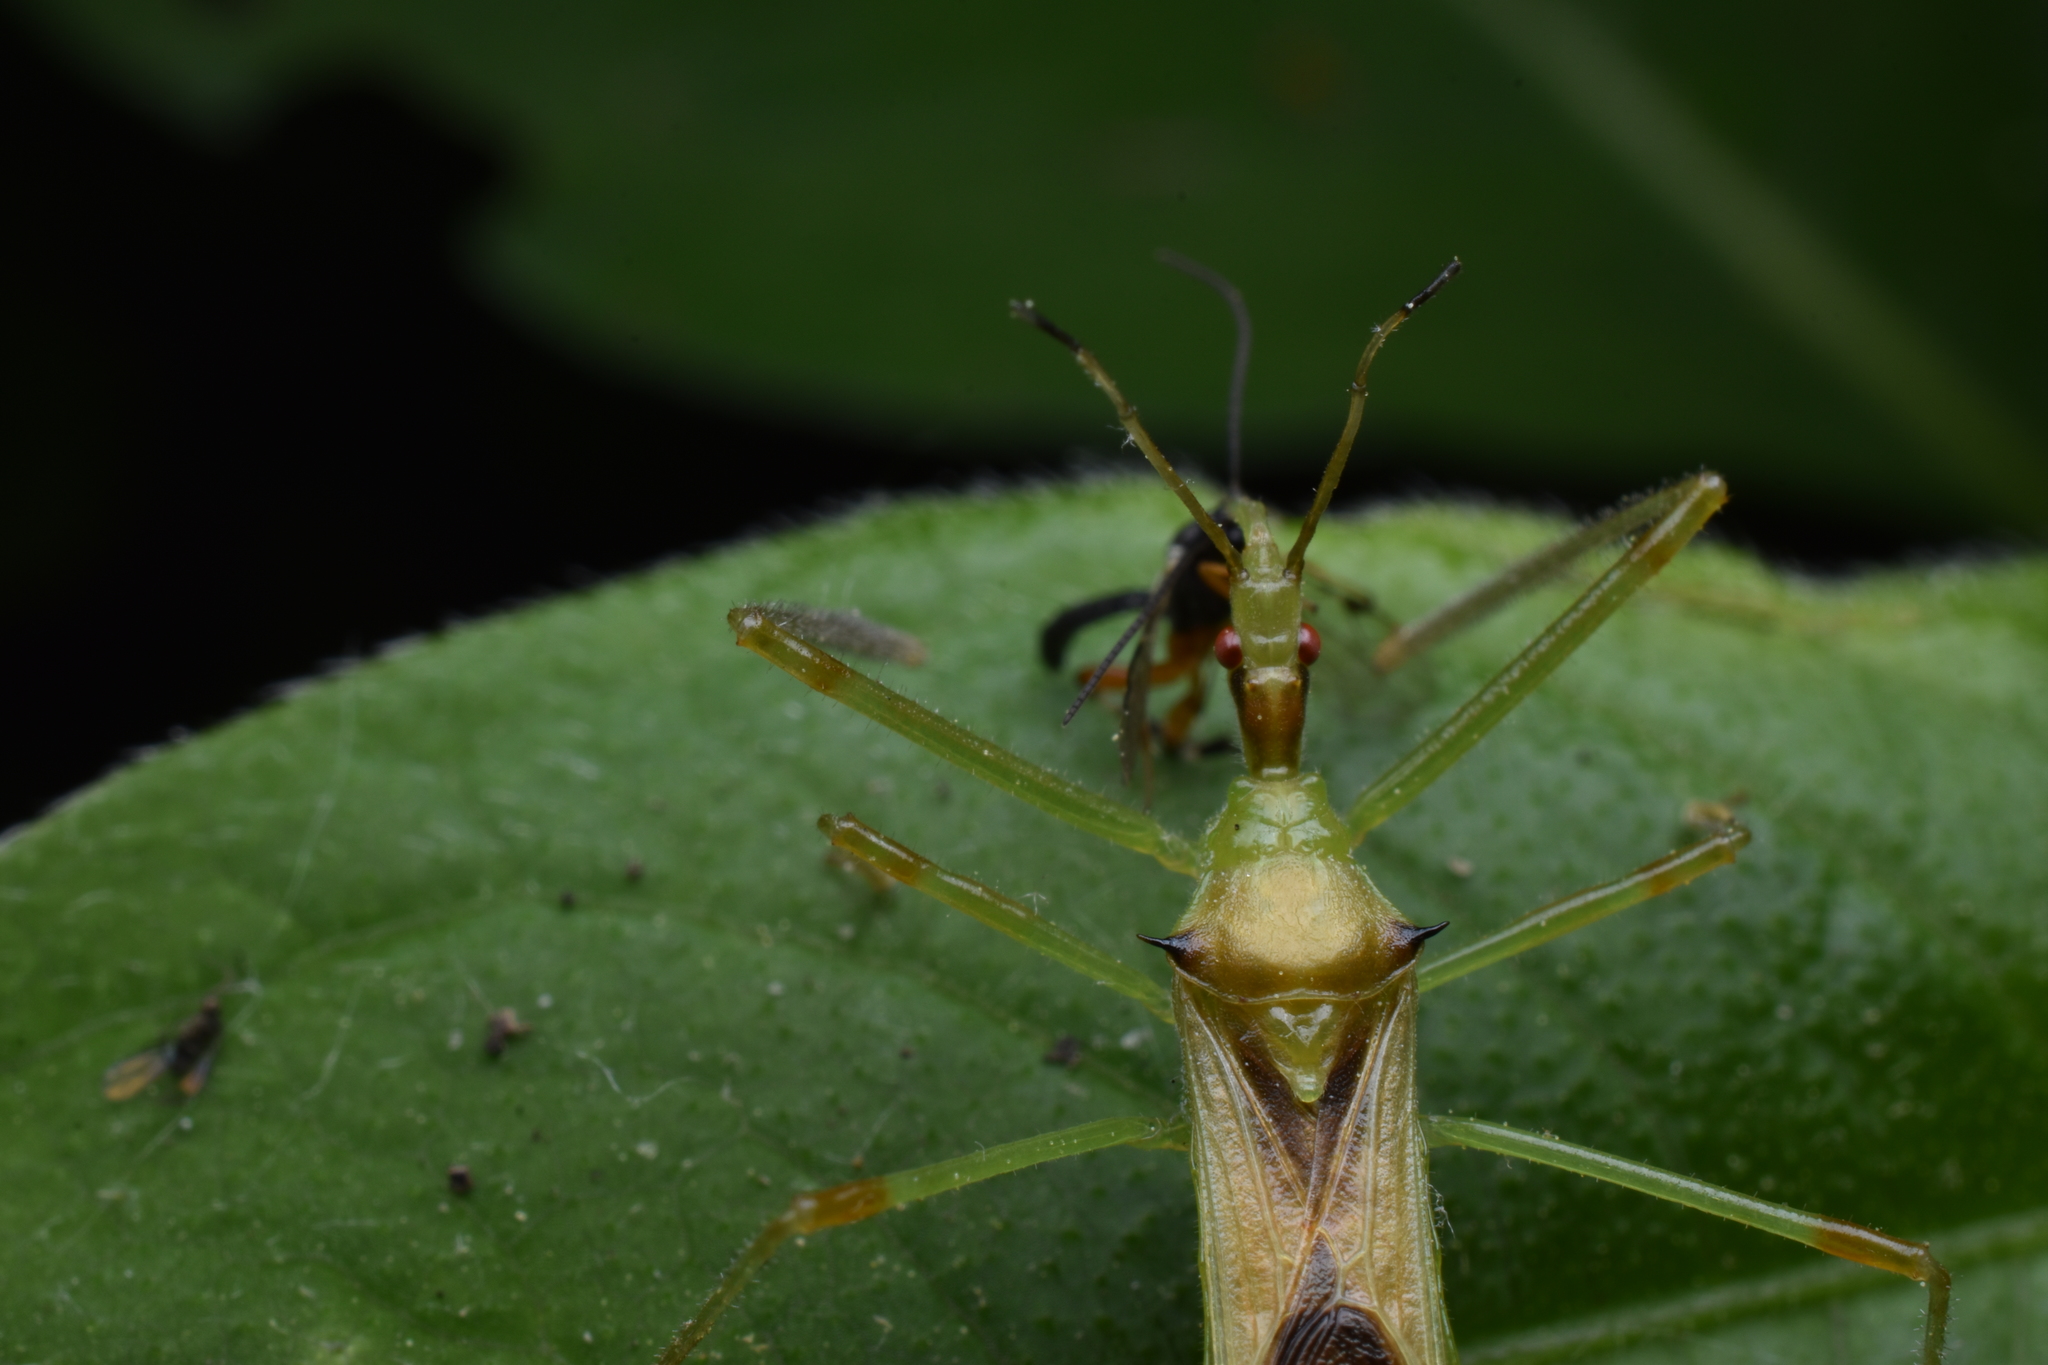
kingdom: Animalia
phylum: Arthropoda
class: Insecta
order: Hemiptera
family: Reduviidae
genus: Zelus
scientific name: Zelus luridus
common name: Pale green assassin bug
